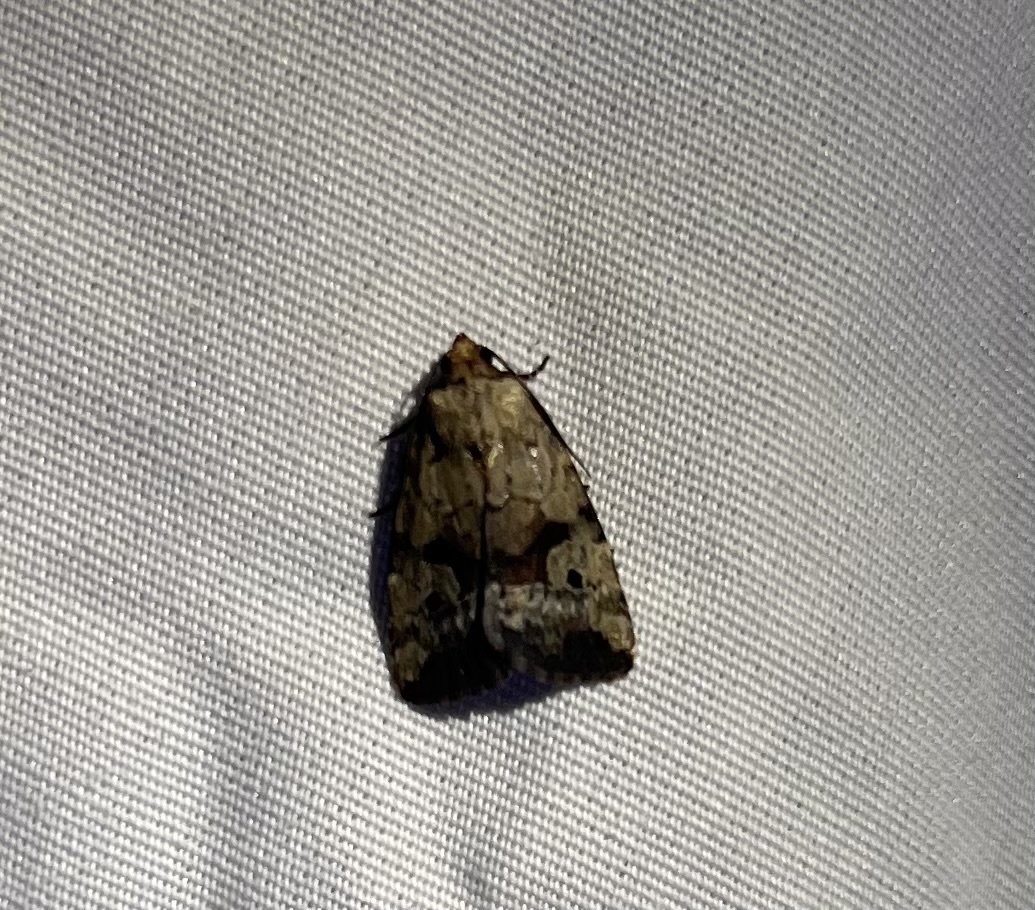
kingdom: Animalia
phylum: Arthropoda
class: Insecta
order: Lepidoptera
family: Noctuidae
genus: Elaphria
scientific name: Elaphria festivoides
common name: Festive midget
